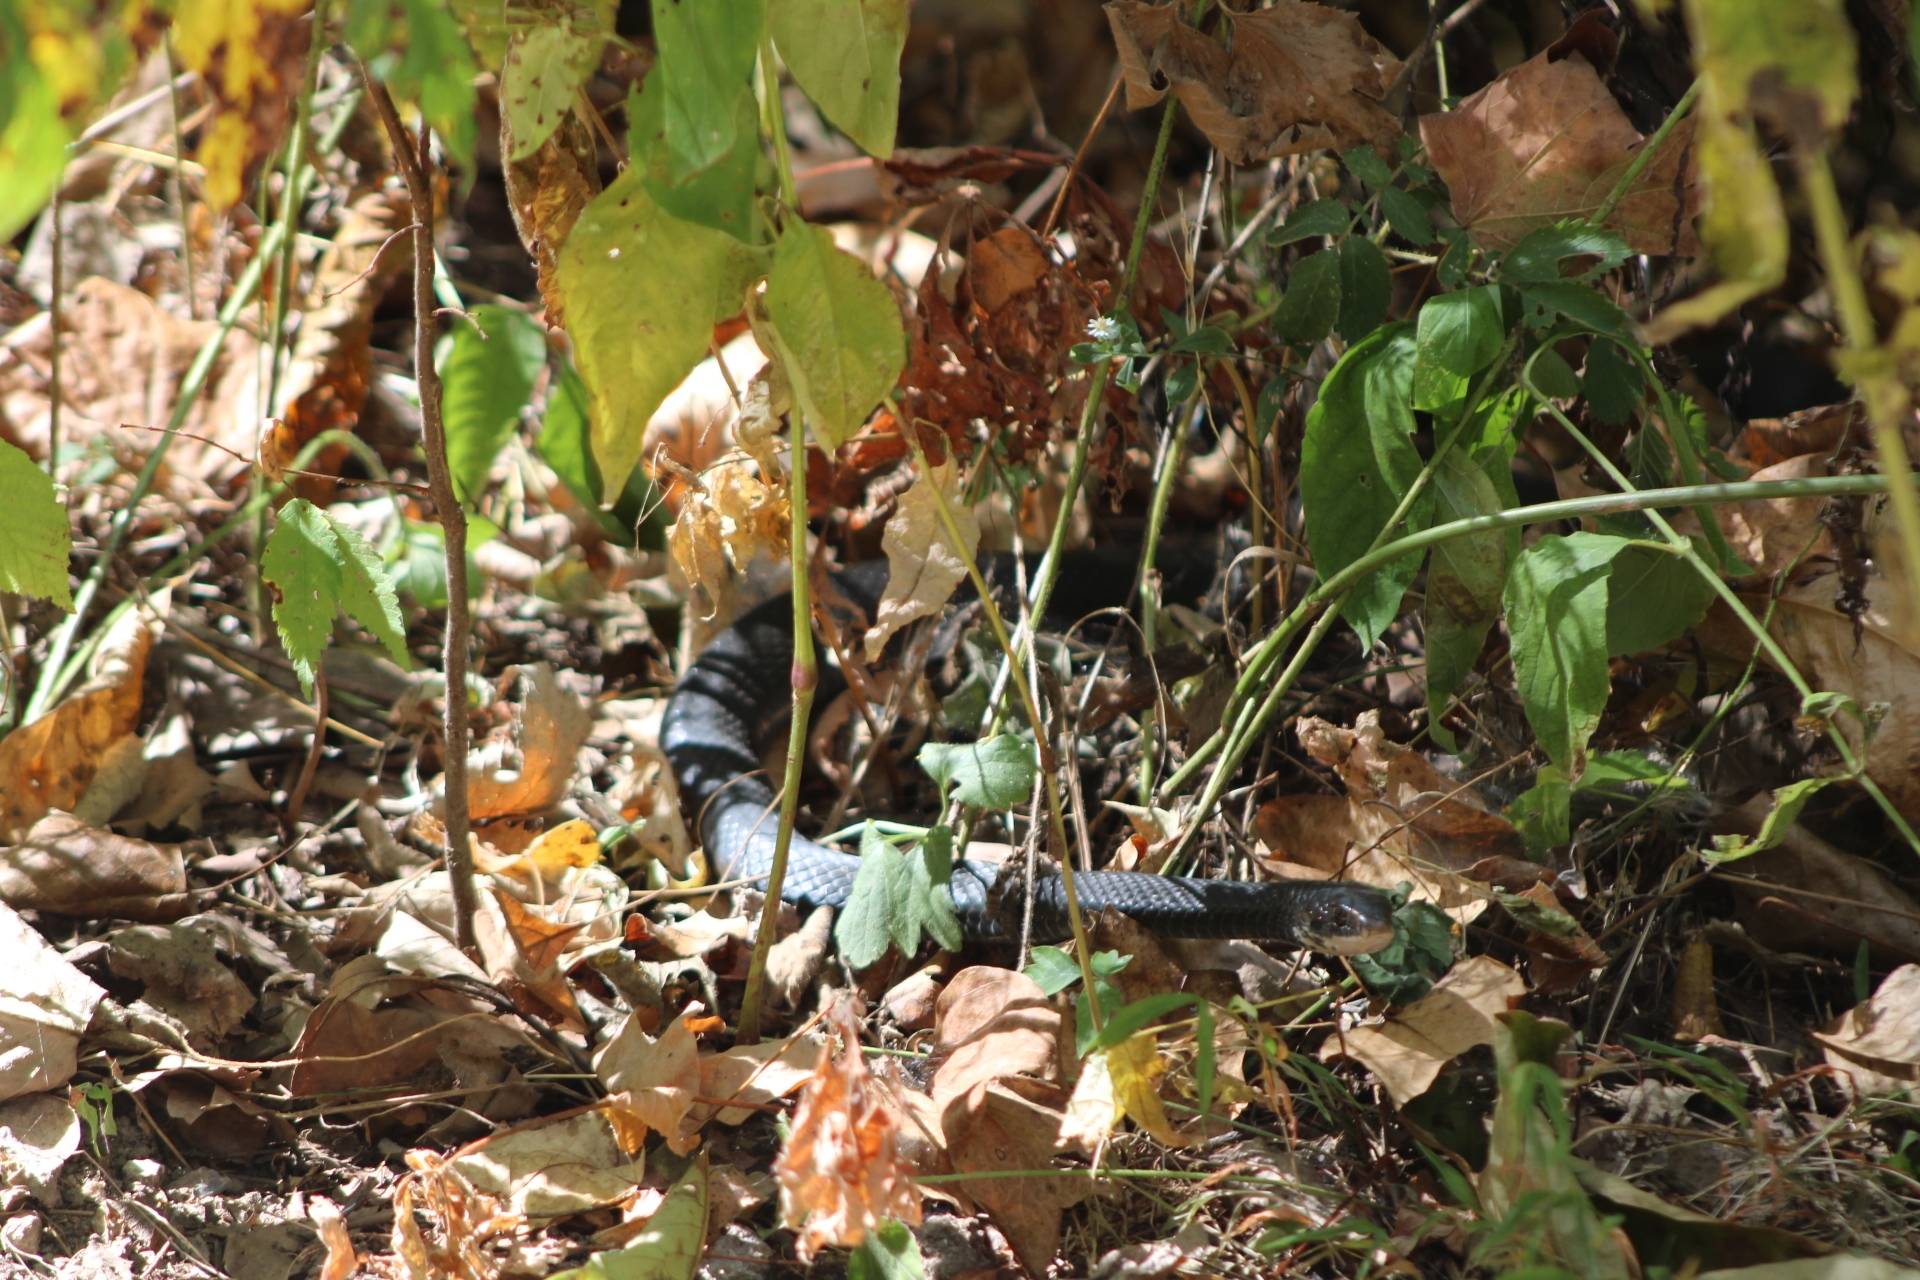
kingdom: Animalia
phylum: Chordata
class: Squamata
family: Colubridae
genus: Coluber
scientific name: Coluber constrictor
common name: Eastern racer
